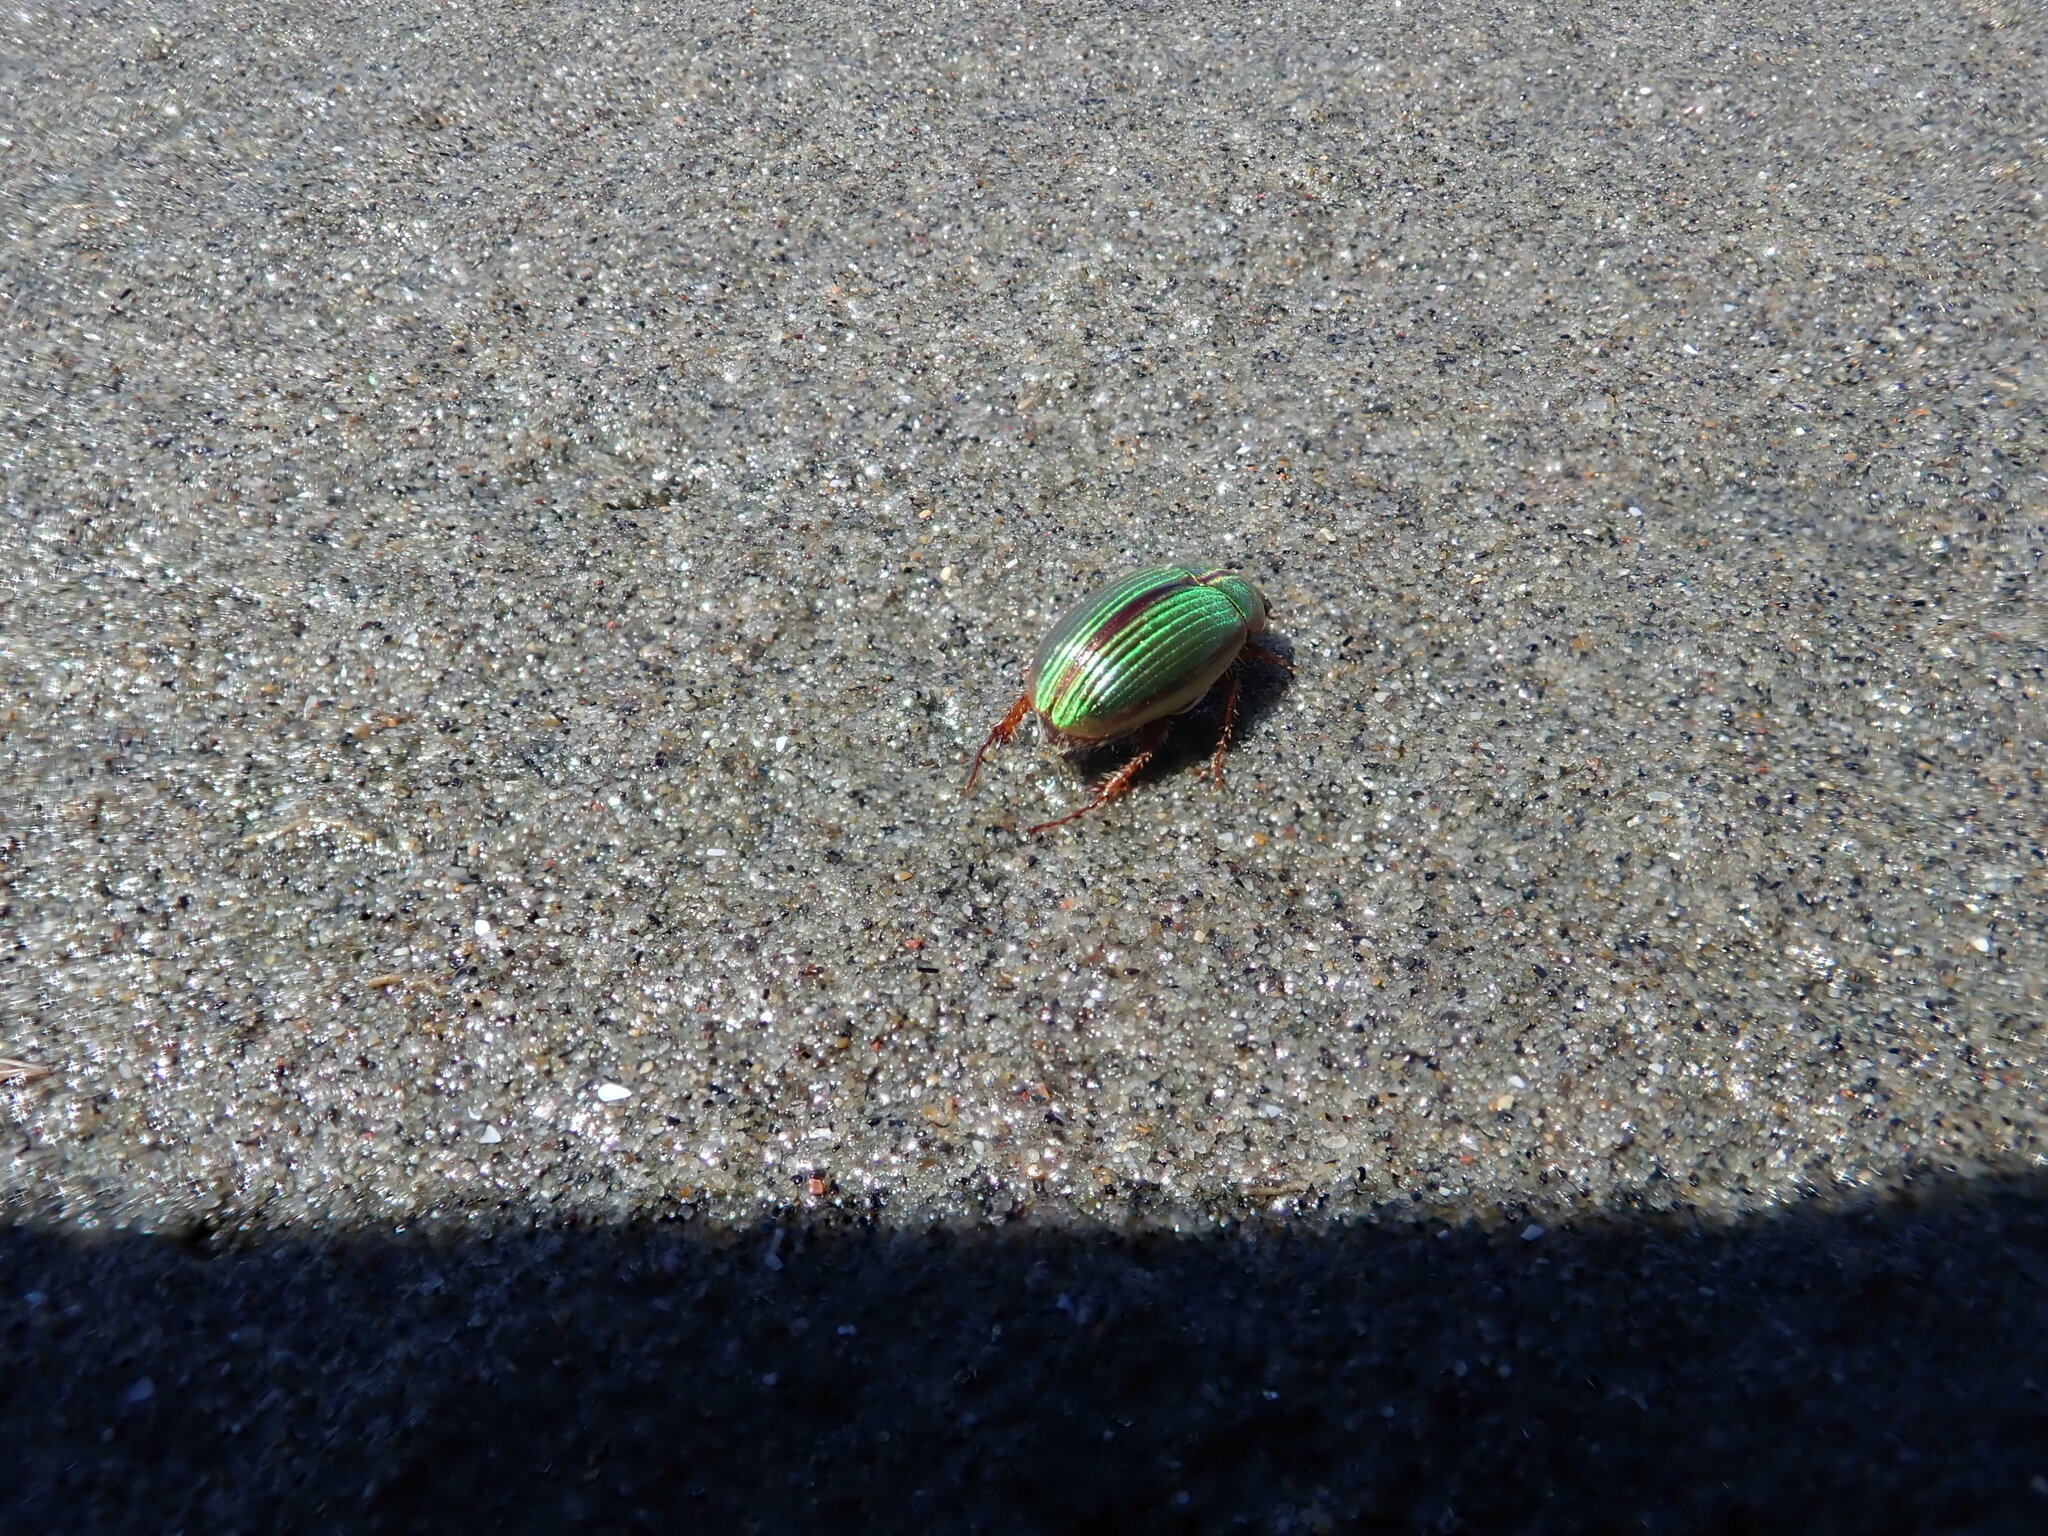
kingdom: Animalia
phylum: Arthropoda
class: Insecta
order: Coleoptera
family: Scarabaeidae
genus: Pyronota
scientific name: Pyronota festiva
